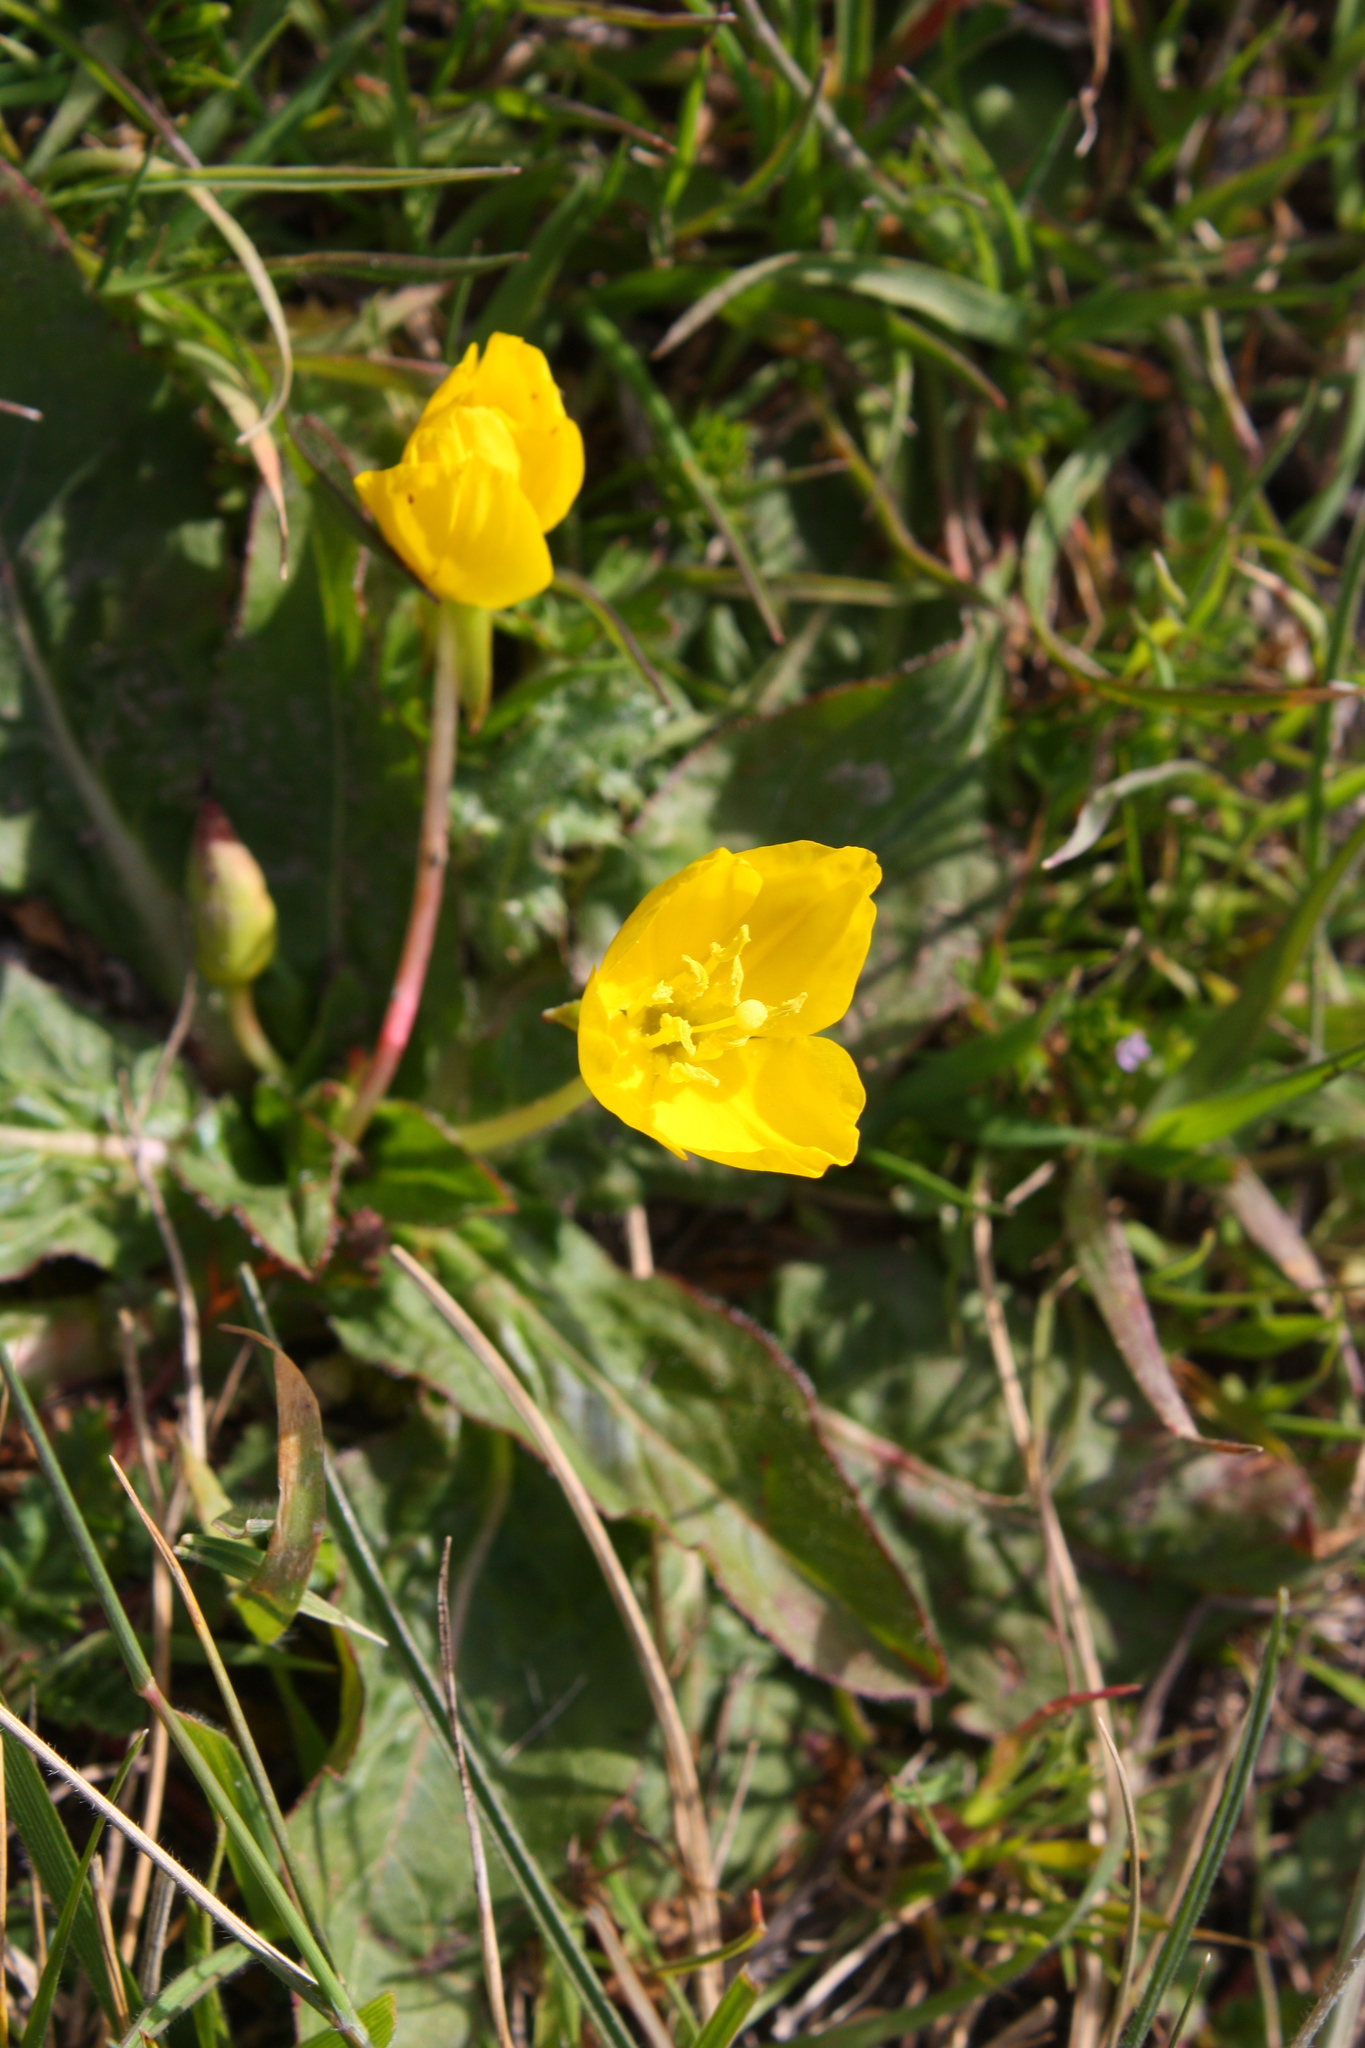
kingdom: Plantae
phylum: Tracheophyta
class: Magnoliopsida
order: Myrtales
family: Onagraceae
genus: Taraxia
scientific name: Taraxia ovata
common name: Goldeneggs
